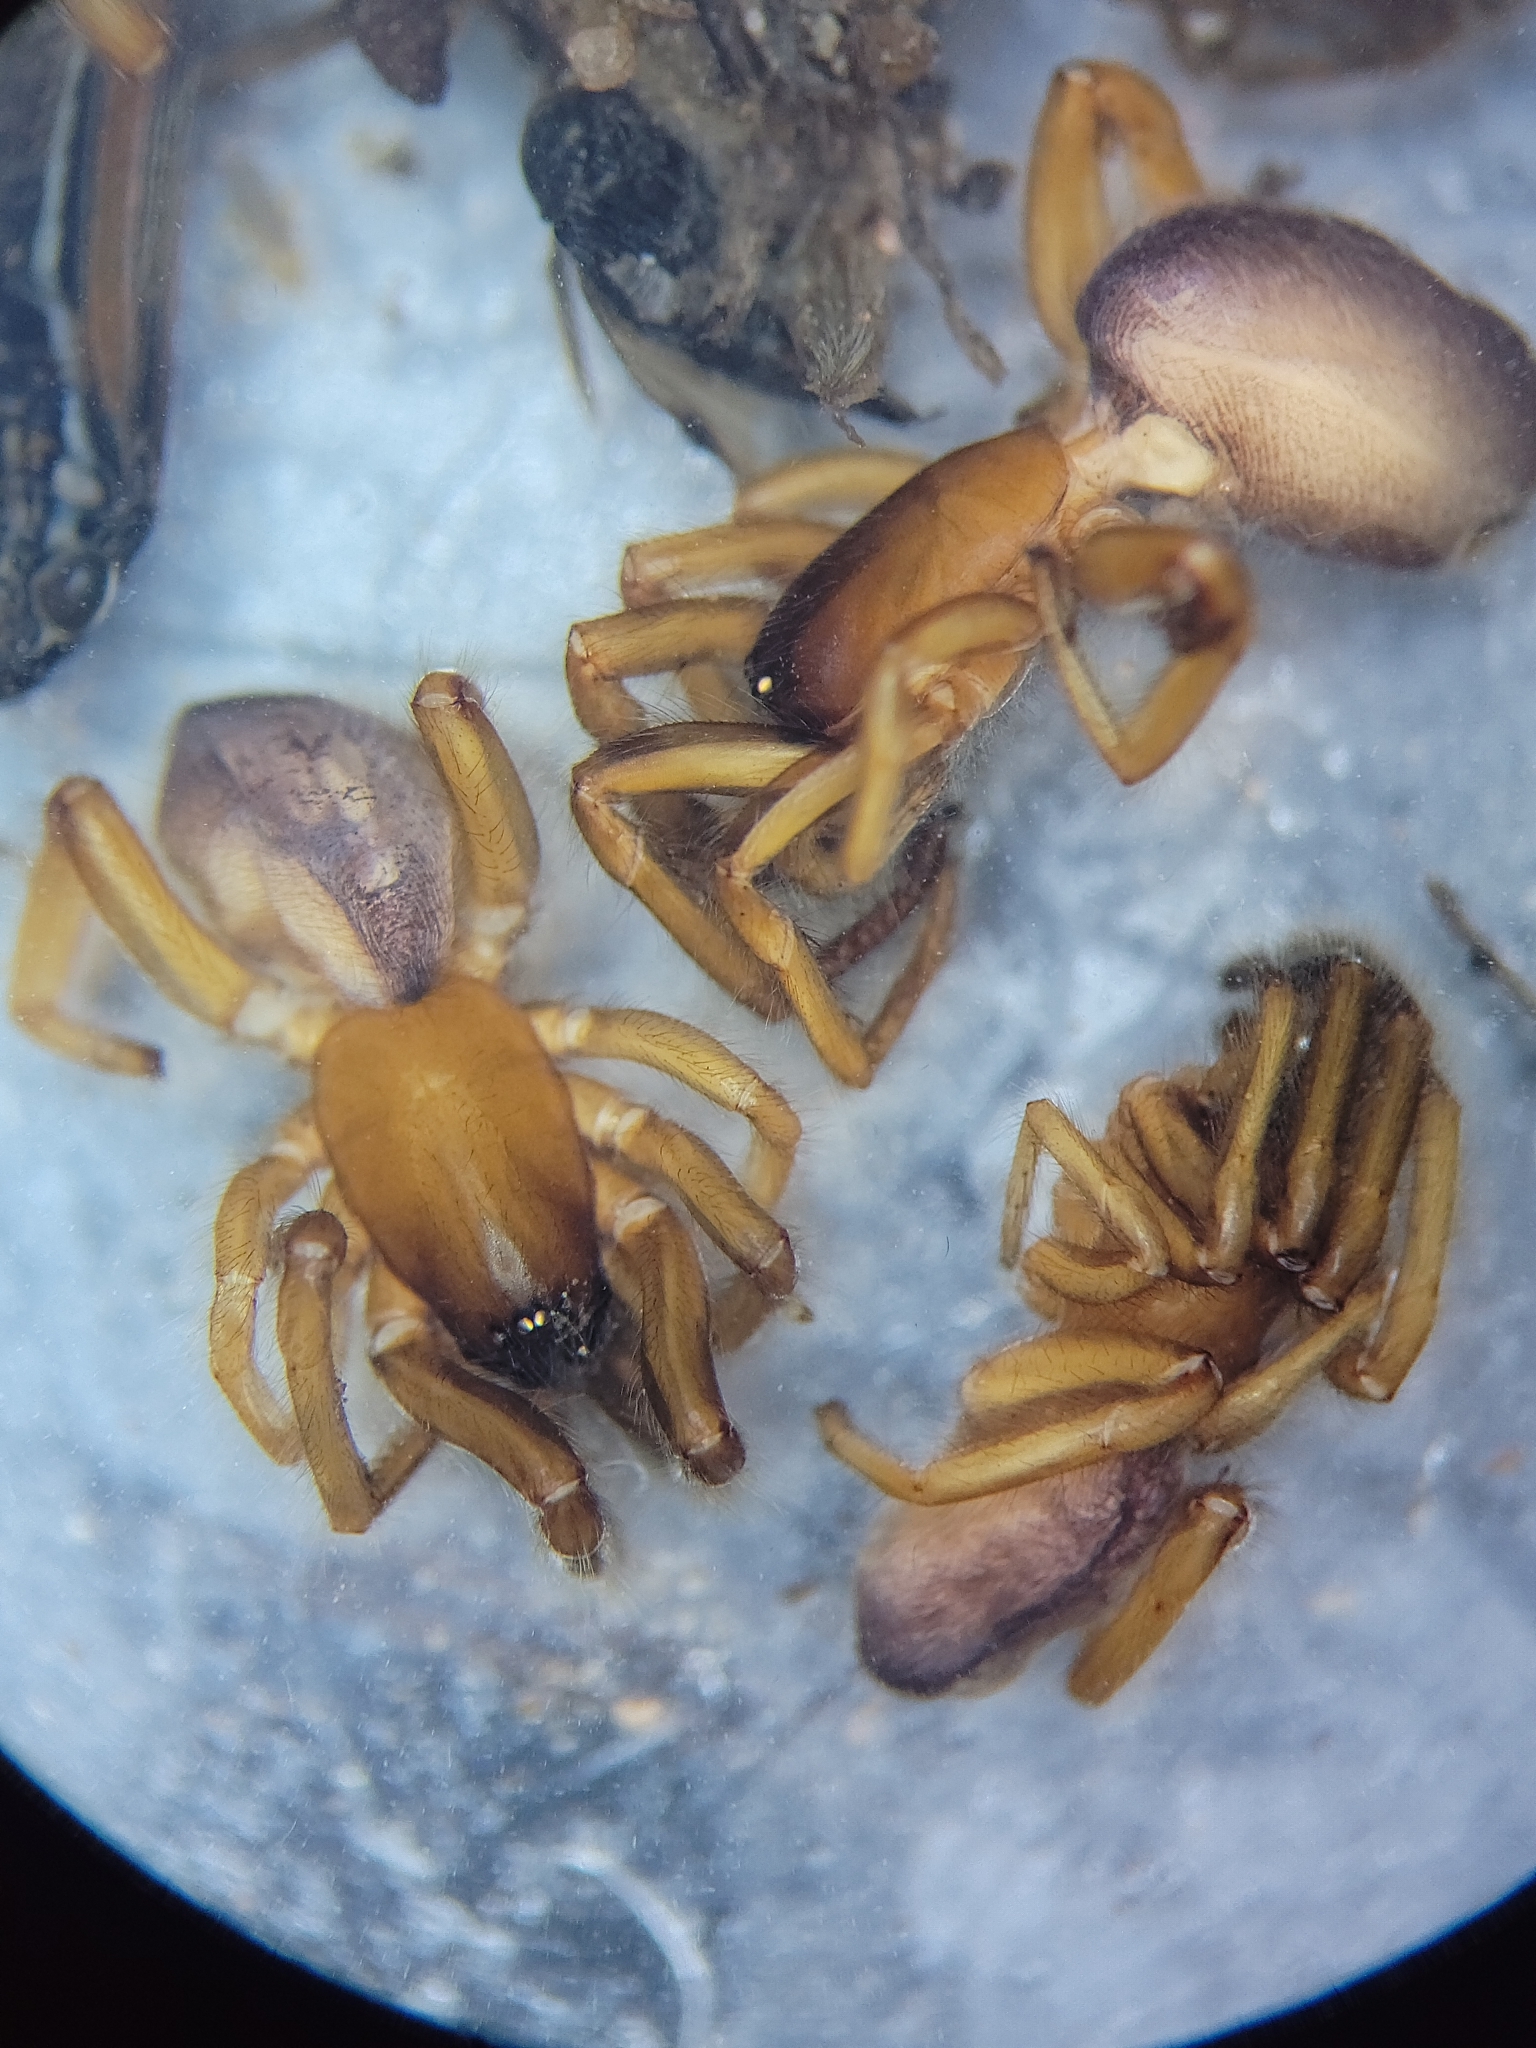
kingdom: Animalia
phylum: Arthropoda
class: Arachnida
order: Araneae
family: Segestriidae
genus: Ariadna
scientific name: Ariadna bicolor
